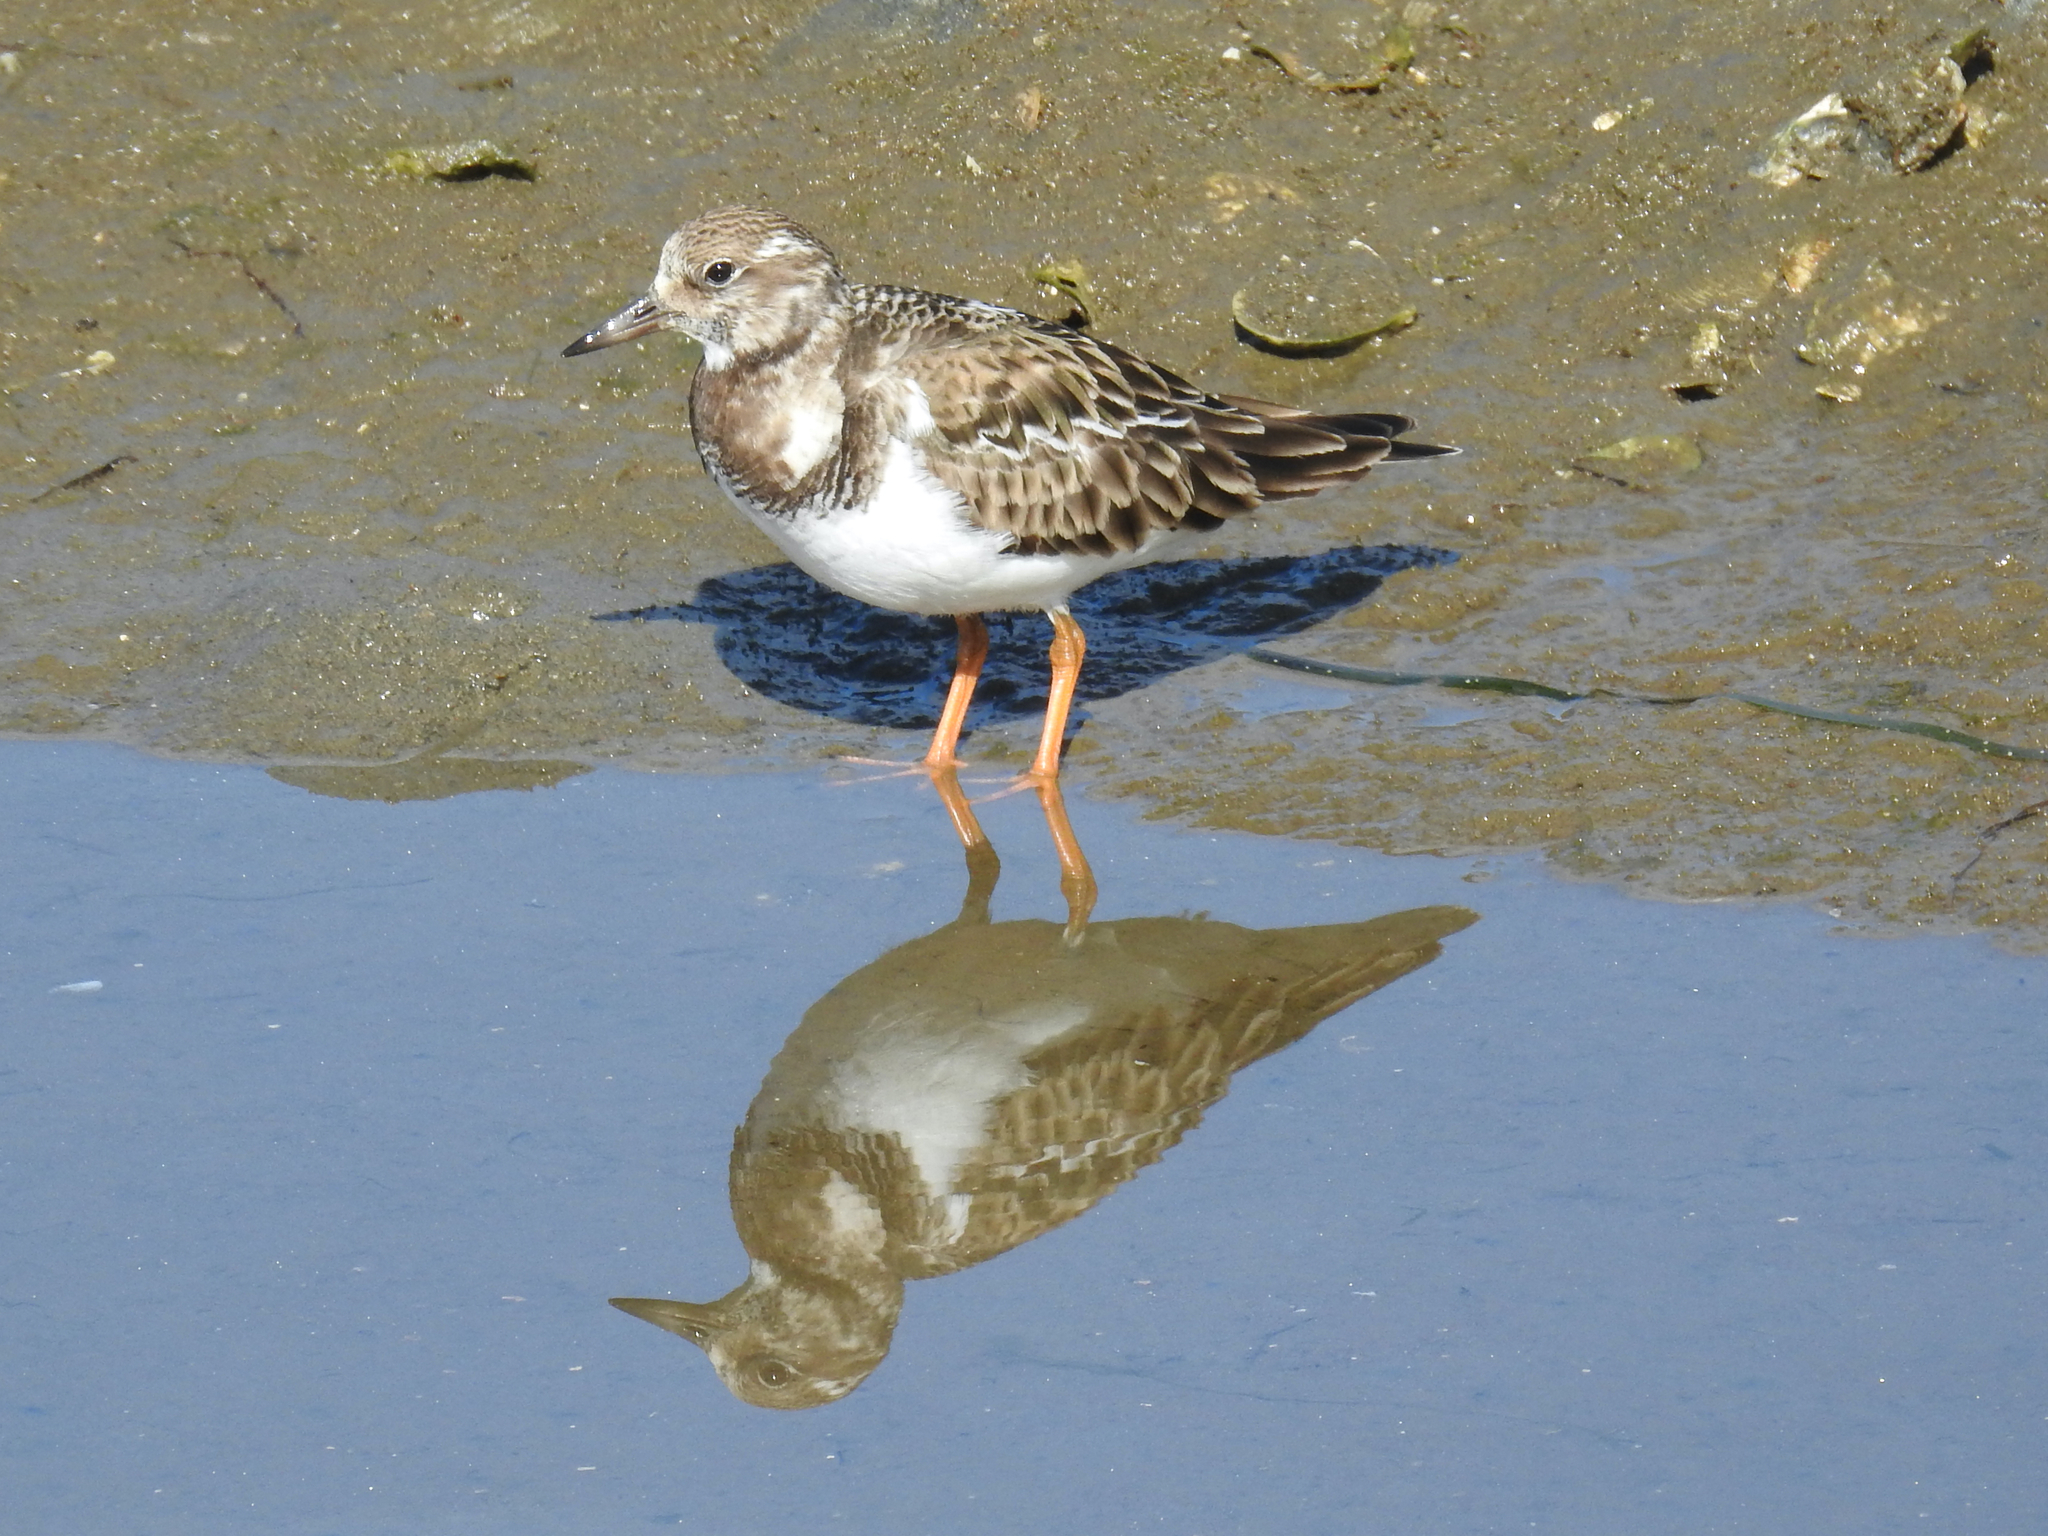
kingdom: Animalia
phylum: Chordata
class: Aves
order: Charadriiformes
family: Scolopacidae
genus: Arenaria
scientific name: Arenaria interpres
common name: Ruddy turnstone
